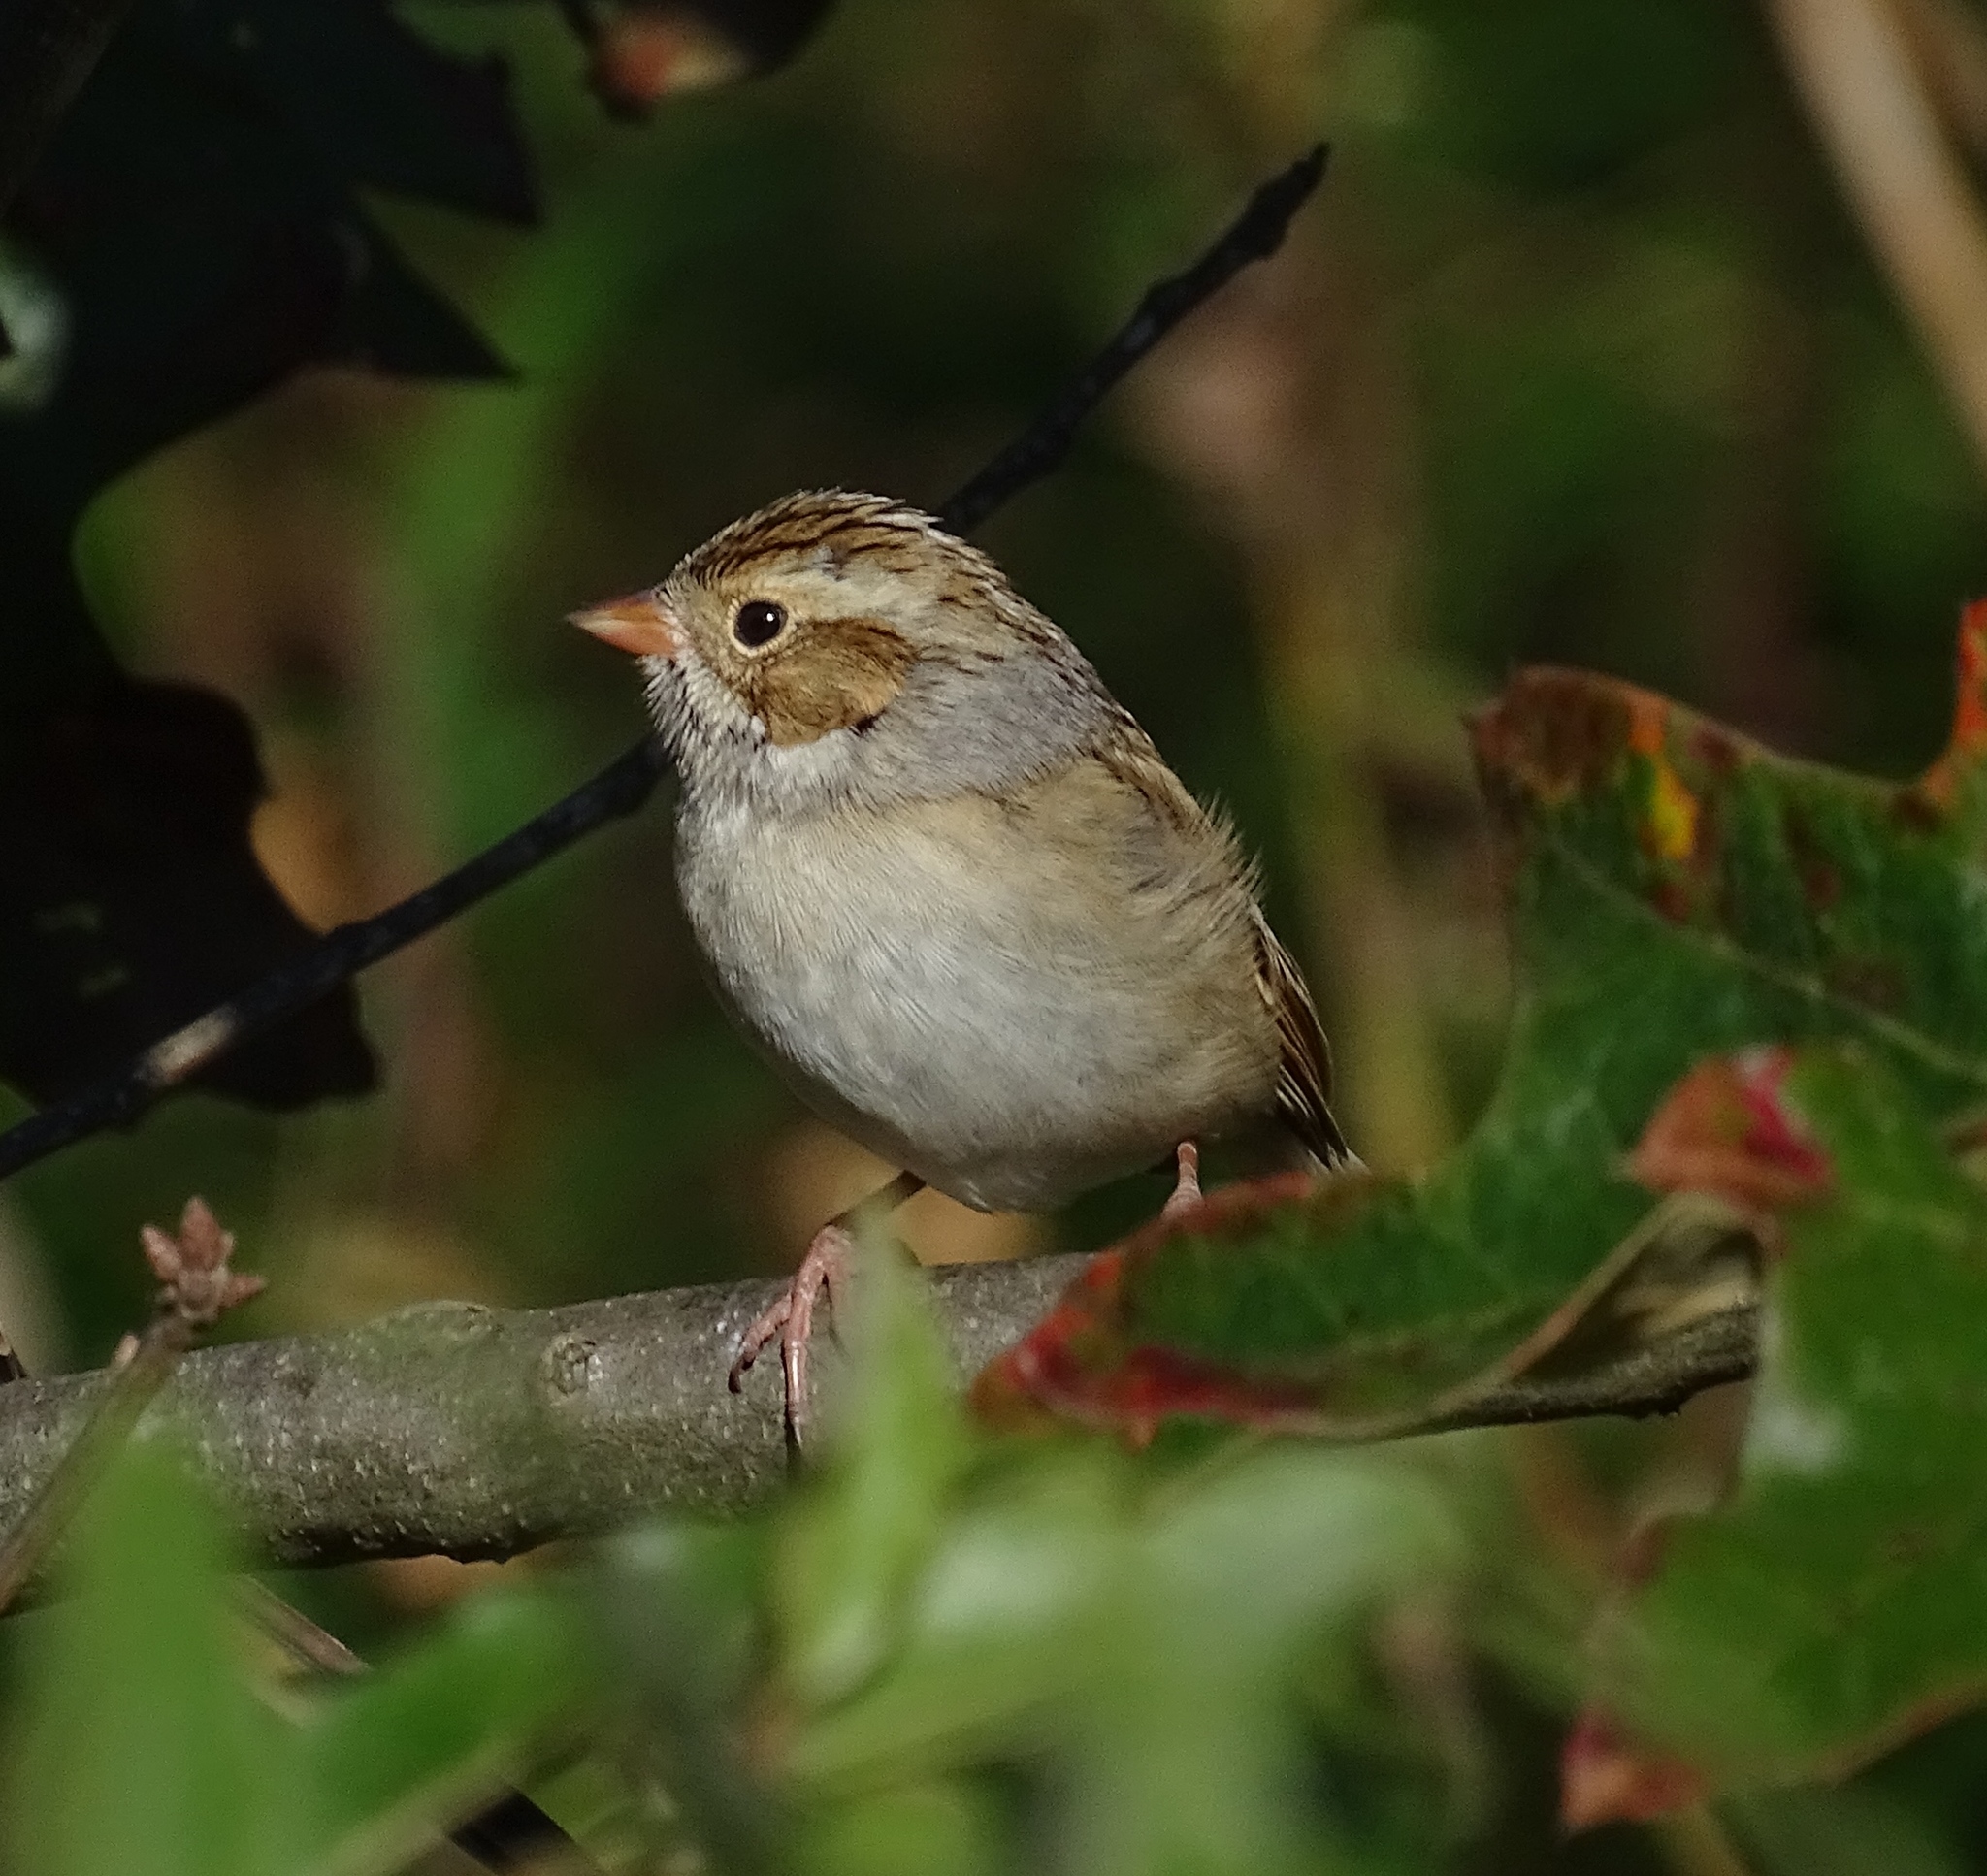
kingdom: Animalia
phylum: Chordata
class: Aves
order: Passeriformes
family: Passerellidae
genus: Spizella
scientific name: Spizella pallida
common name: Clay-colored sparrow
